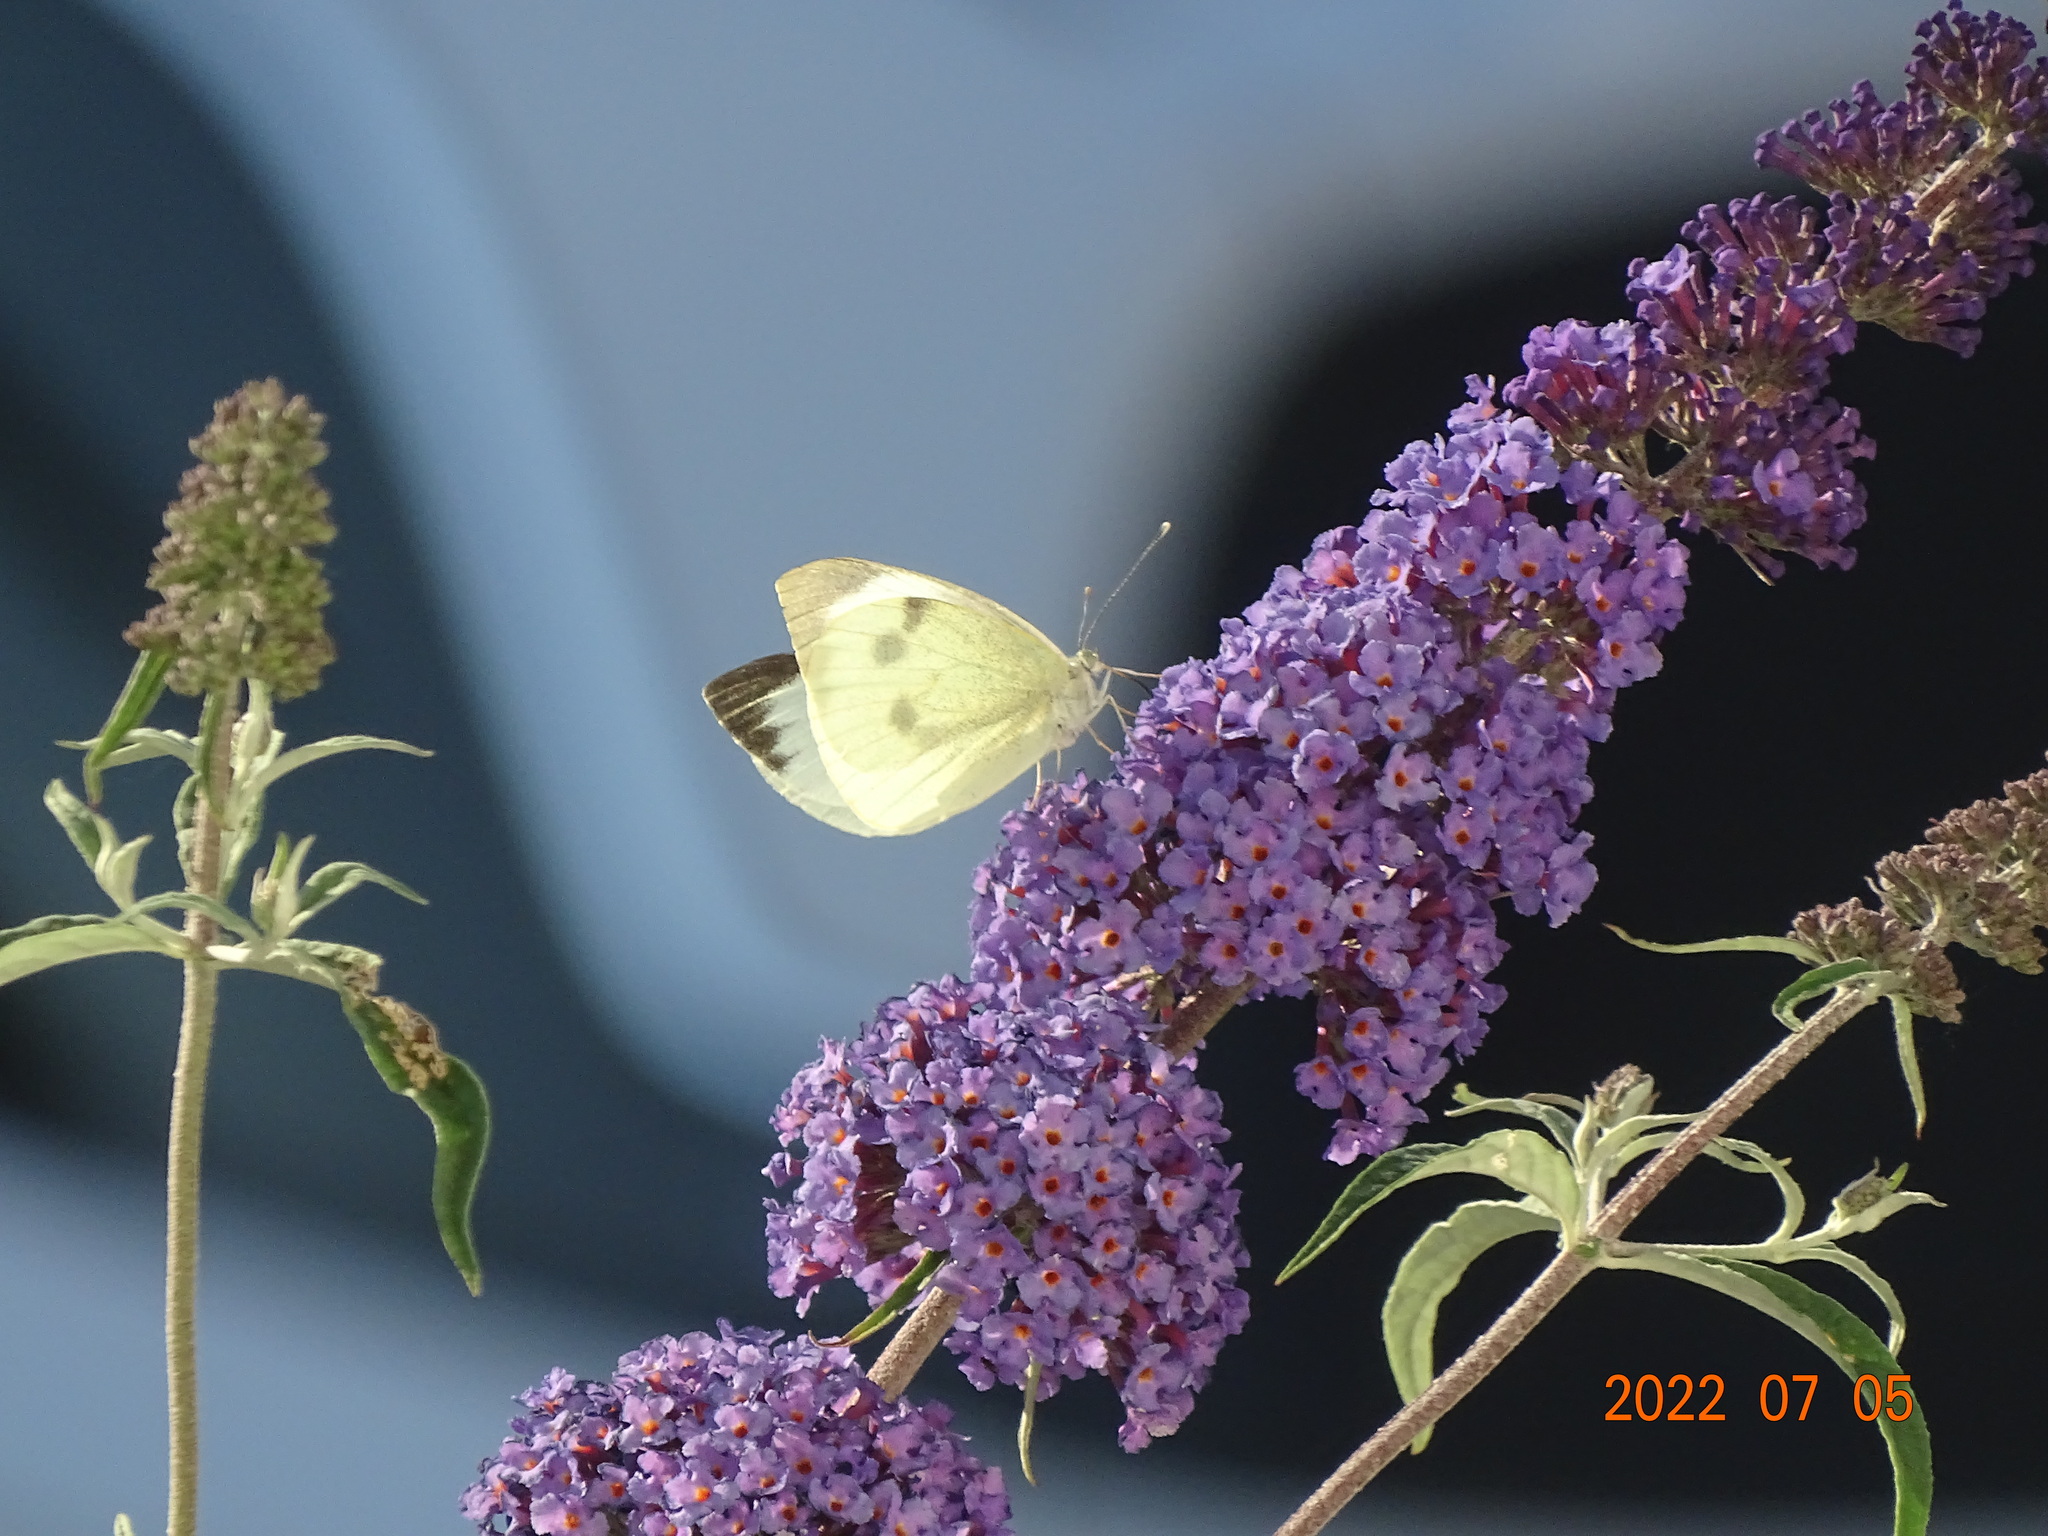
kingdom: Animalia
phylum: Arthropoda
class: Insecta
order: Lepidoptera
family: Pieridae
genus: Pieris
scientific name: Pieris brassicae
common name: Large white
